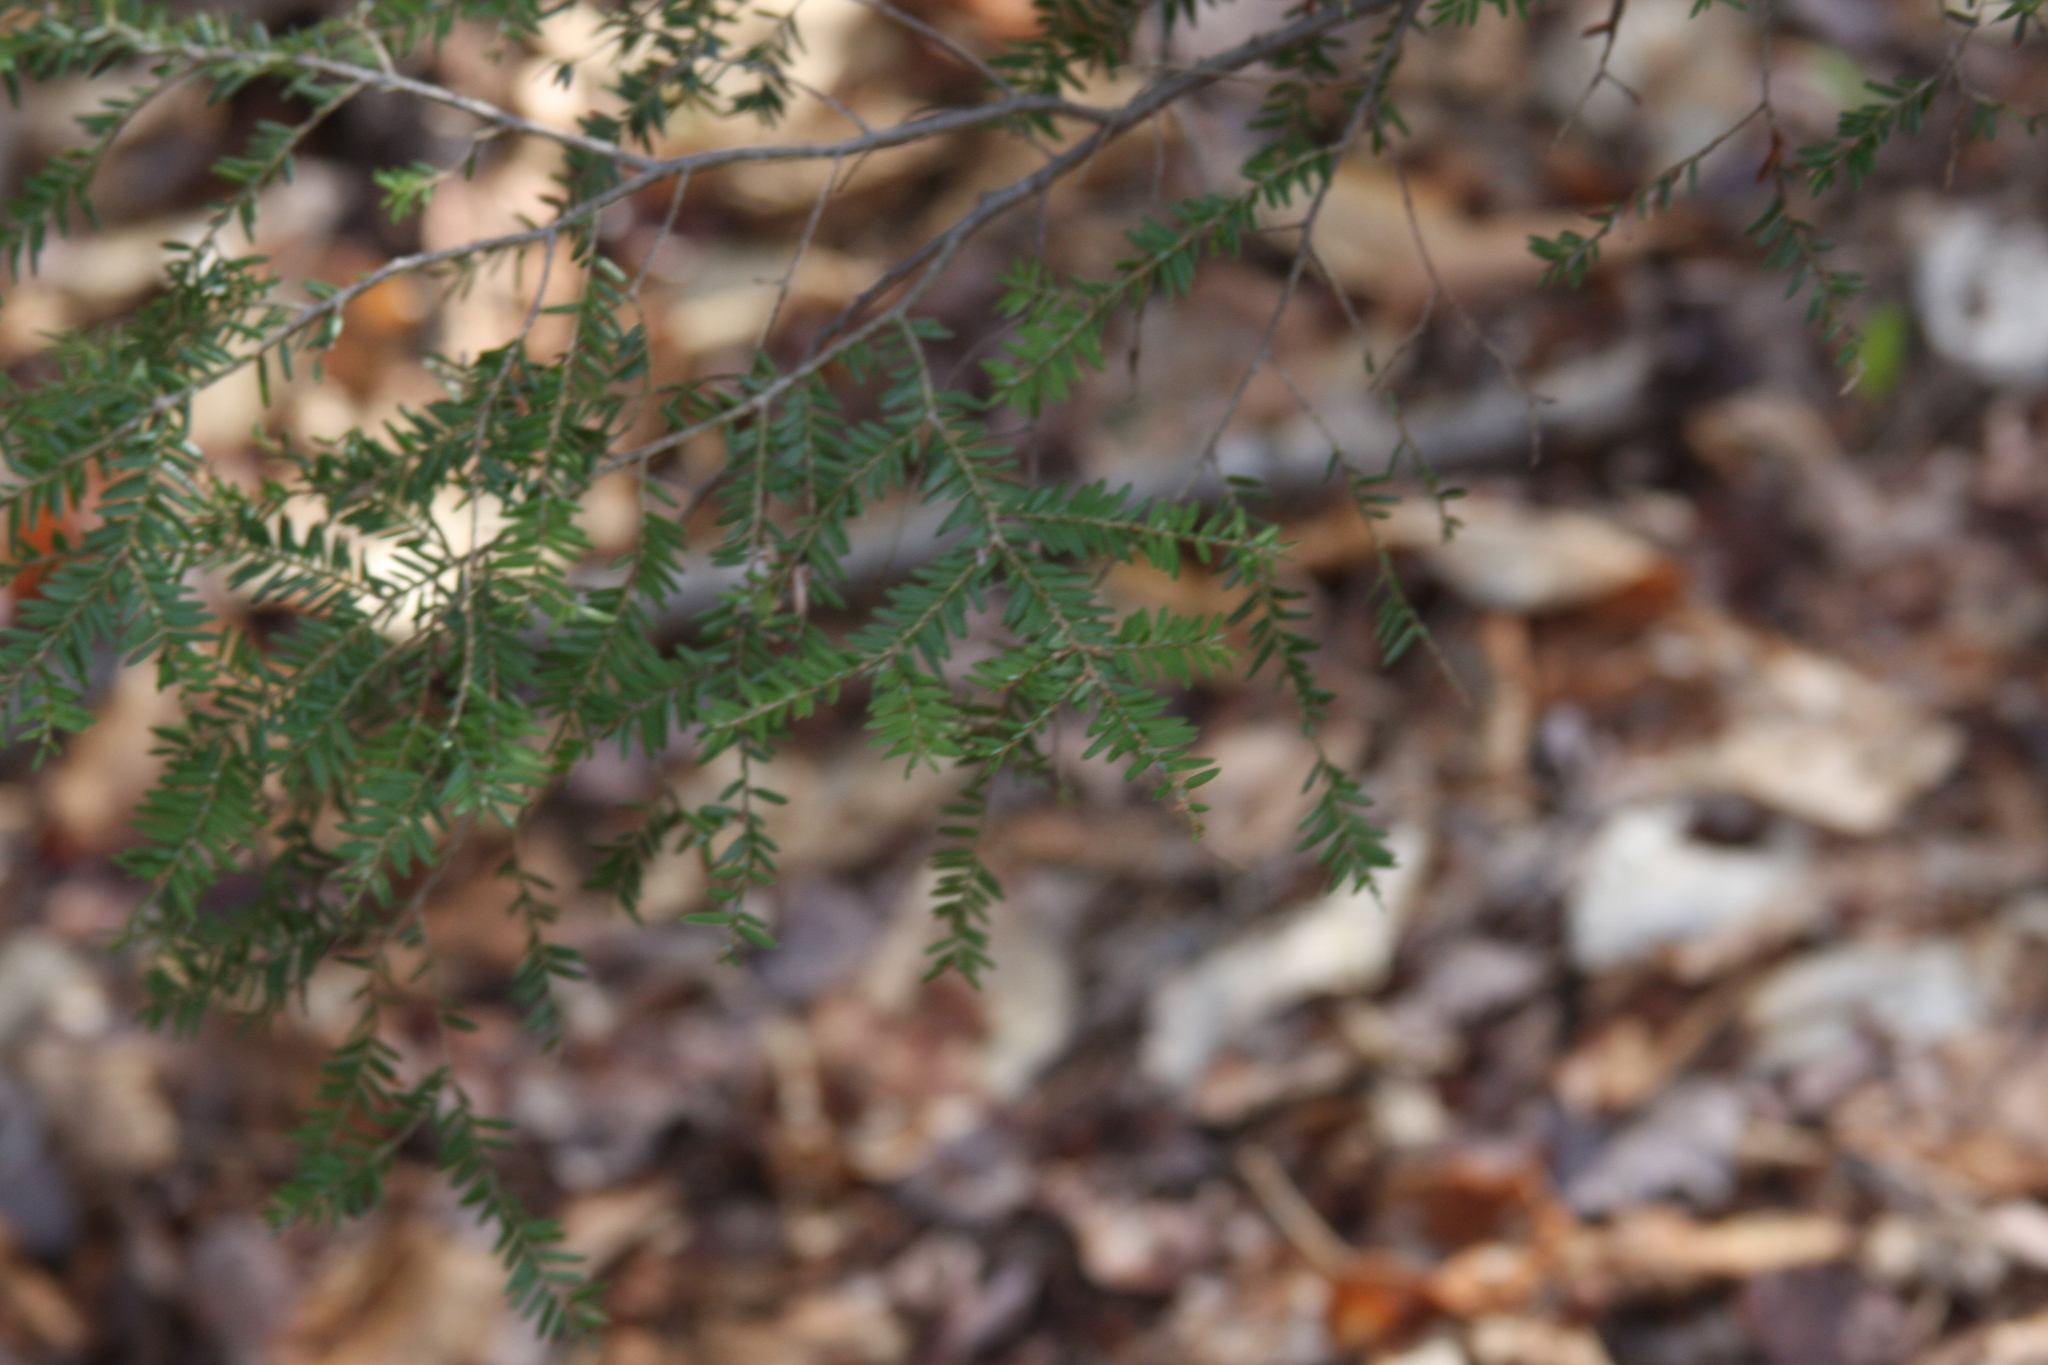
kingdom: Plantae
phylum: Tracheophyta
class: Pinopsida
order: Pinales
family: Pinaceae
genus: Tsuga
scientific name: Tsuga canadensis
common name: Eastern hemlock
